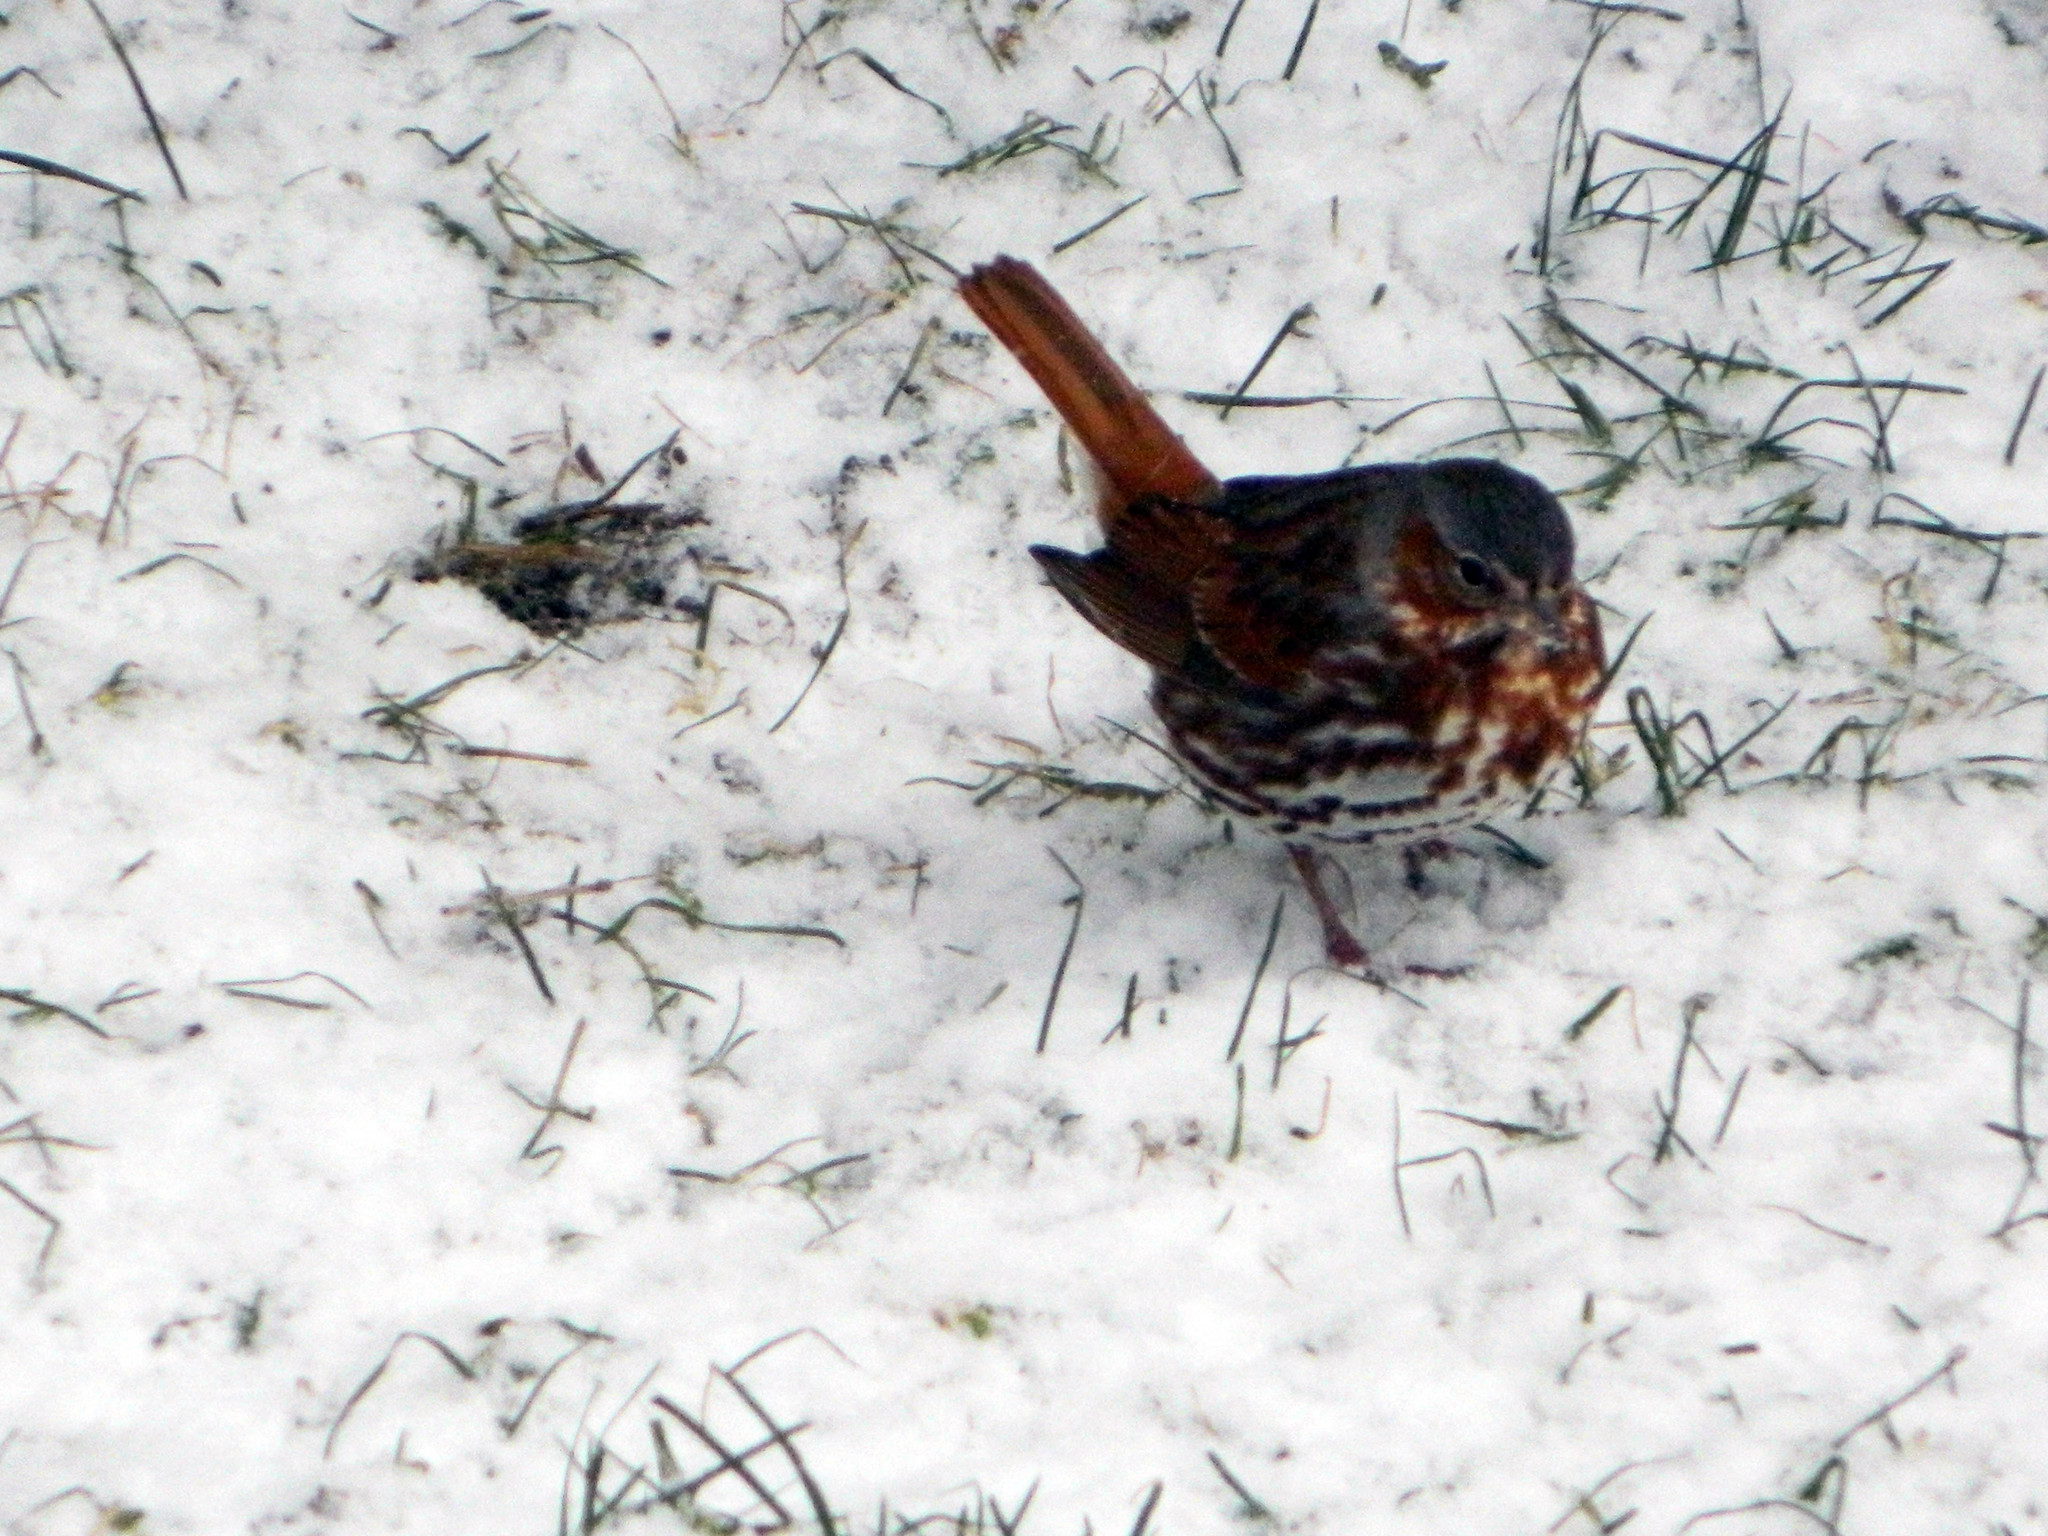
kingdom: Animalia
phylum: Chordata
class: Aves
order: Passeriformes
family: Passerellidae
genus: Passerella
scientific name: Passerella iliaca
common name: Fox sparrow
